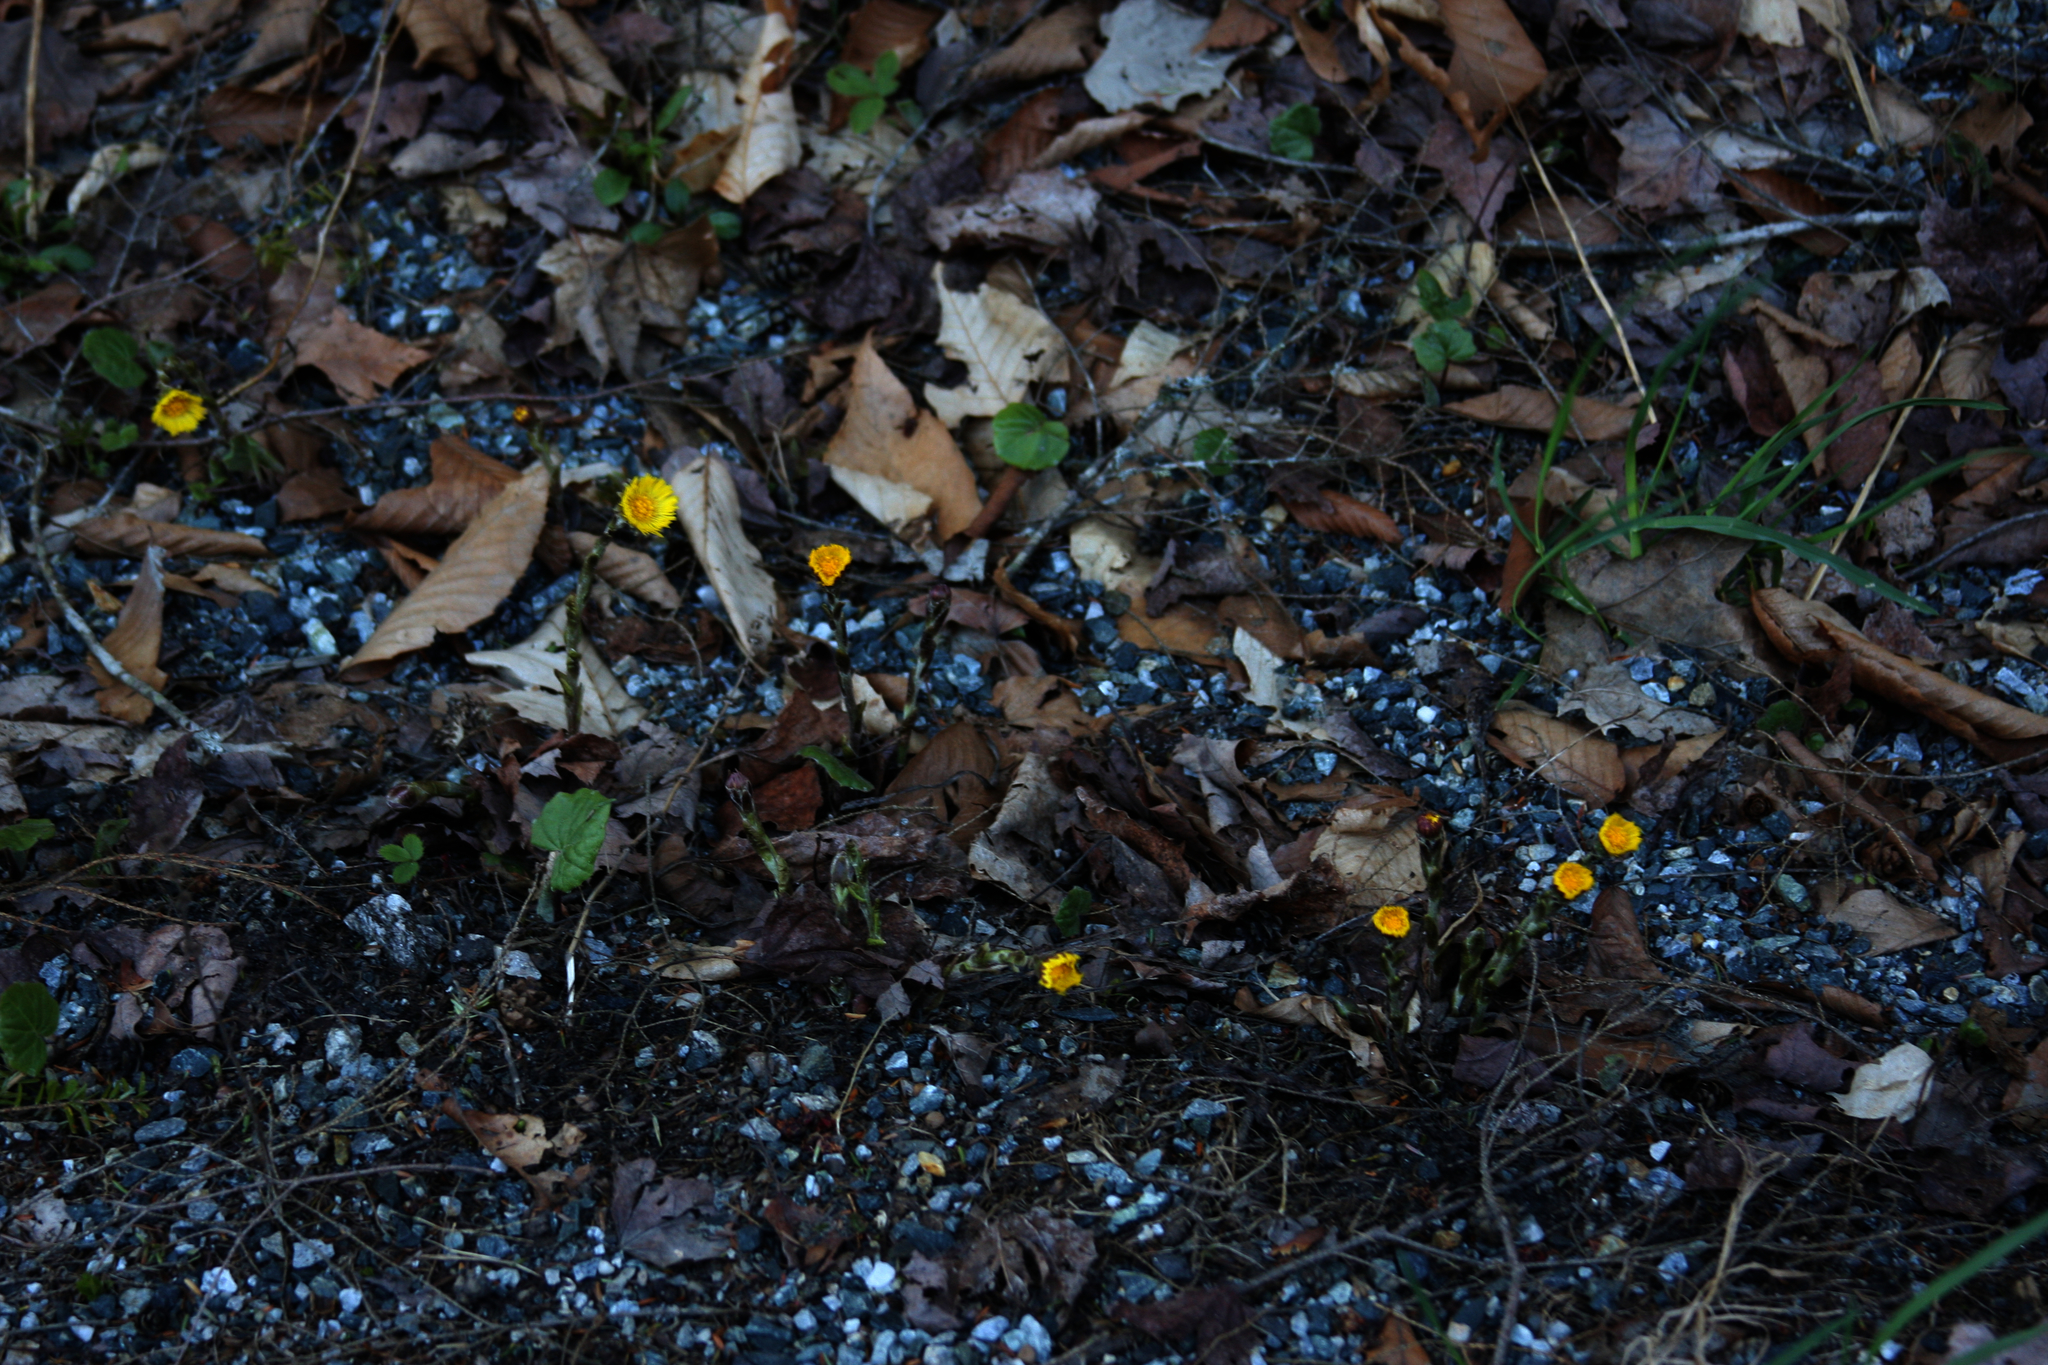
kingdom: Plantae
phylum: Tracheophyta
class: Magnoliopsida
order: Asterales
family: Asteraceae
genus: Tussilago
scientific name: Tussilago farfara
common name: Coltsfoot
